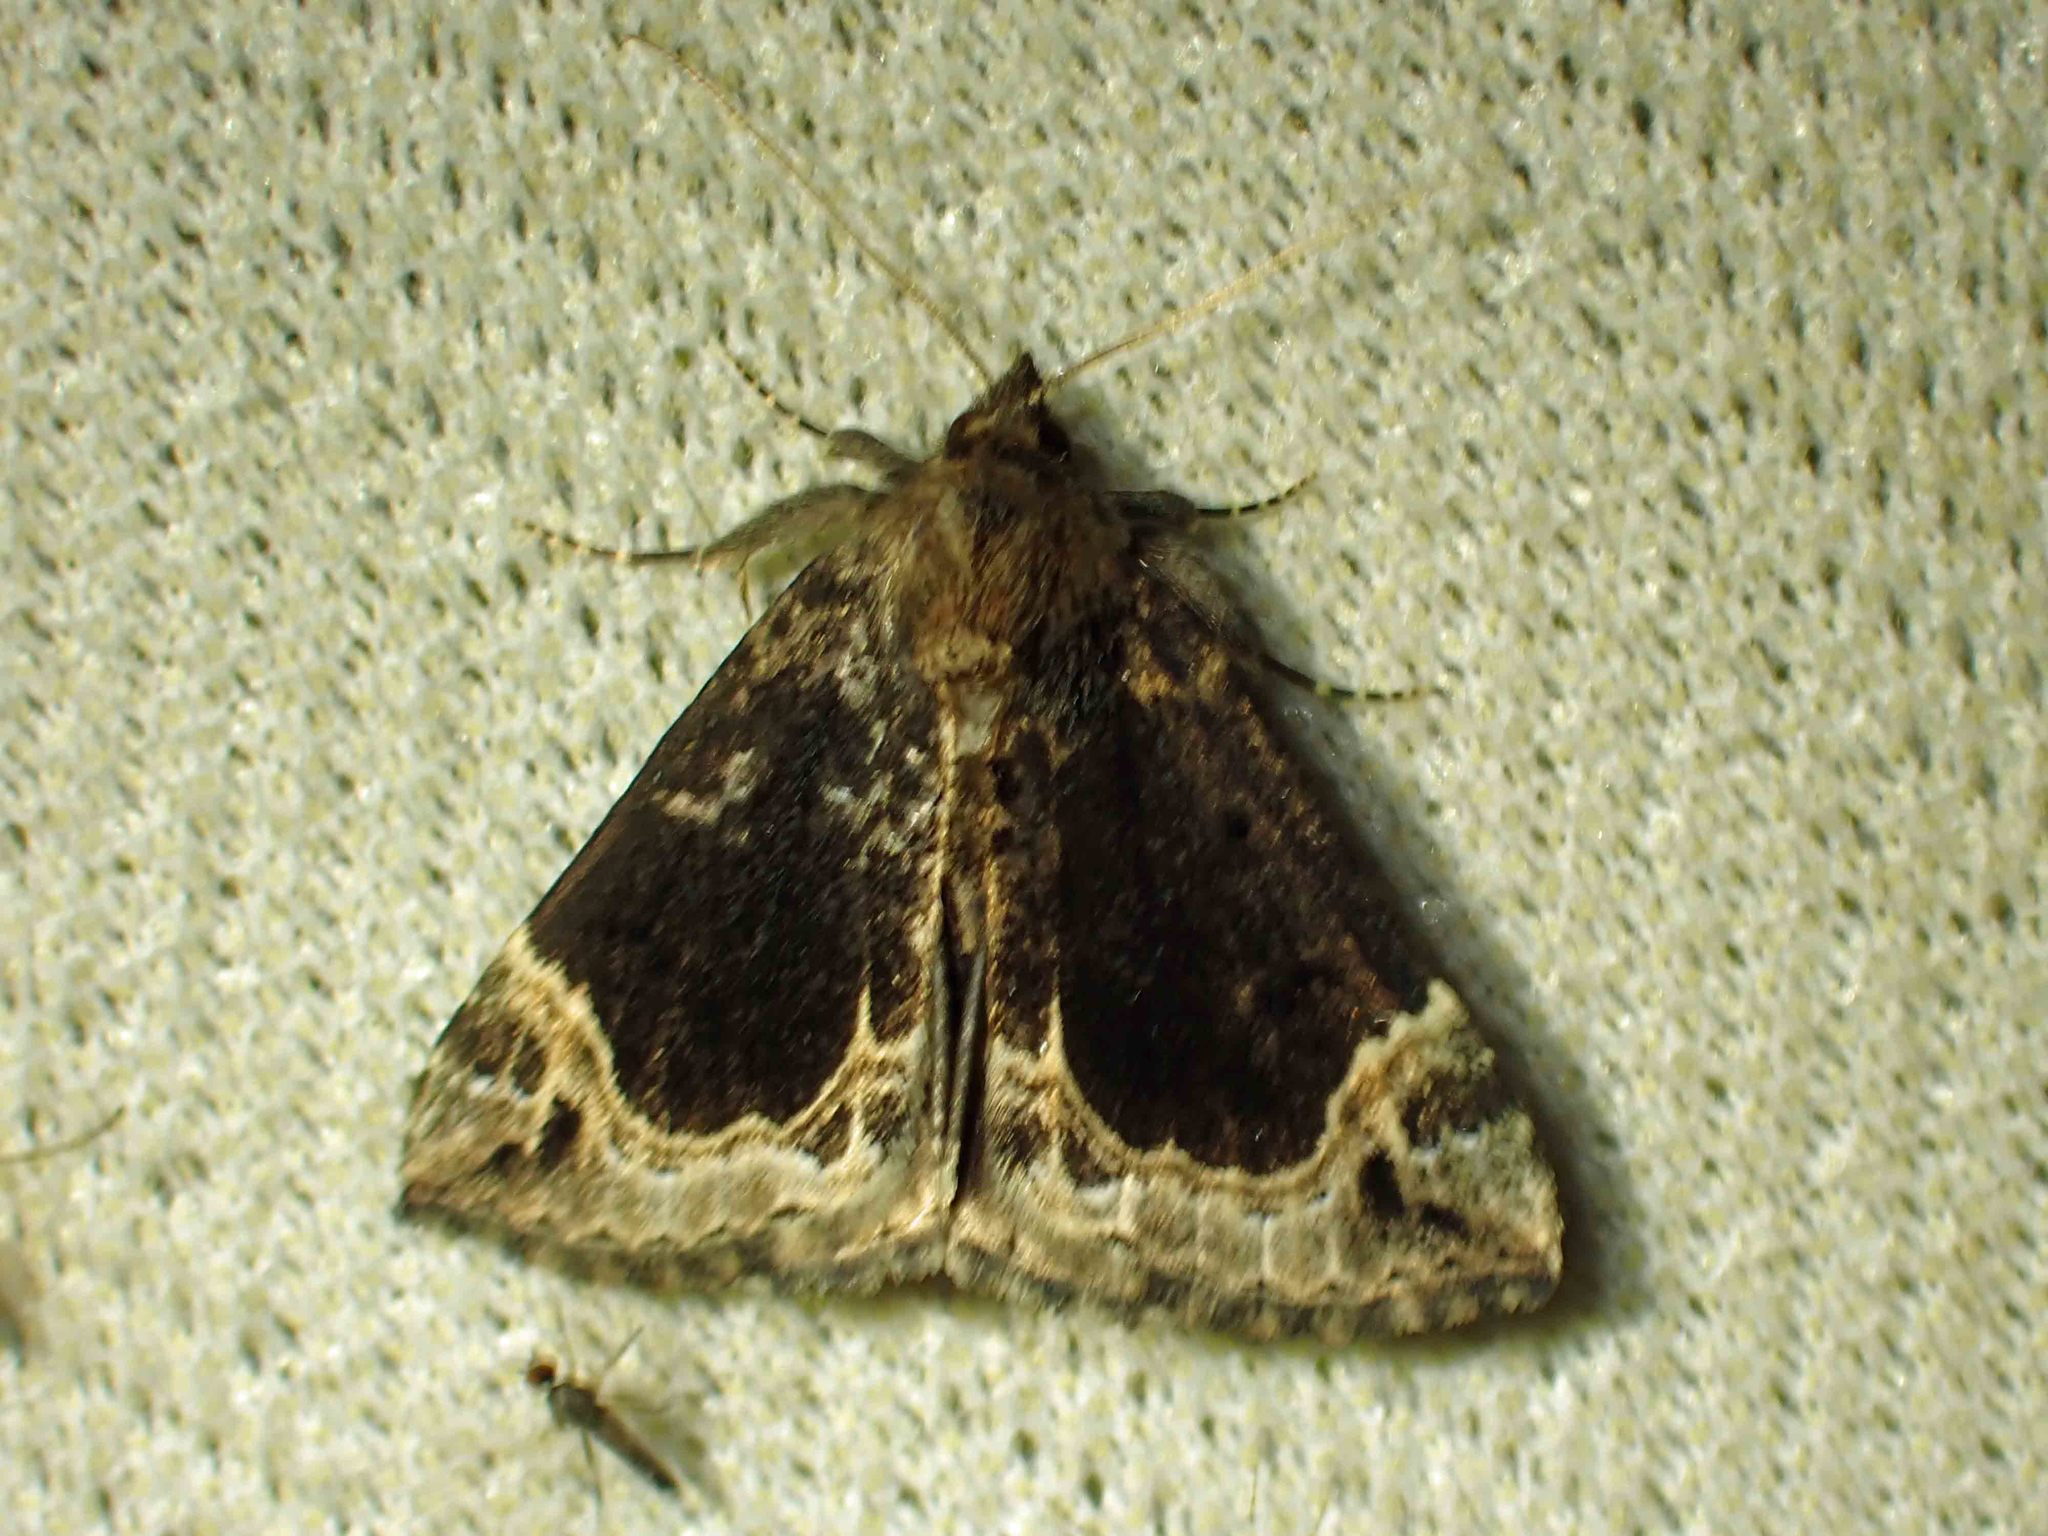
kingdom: Animalia
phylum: Arthropoda
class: Insecta
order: Lepidoptera
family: Erebidae
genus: Hypena
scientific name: Hypena abalienalis
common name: White-lined snout
